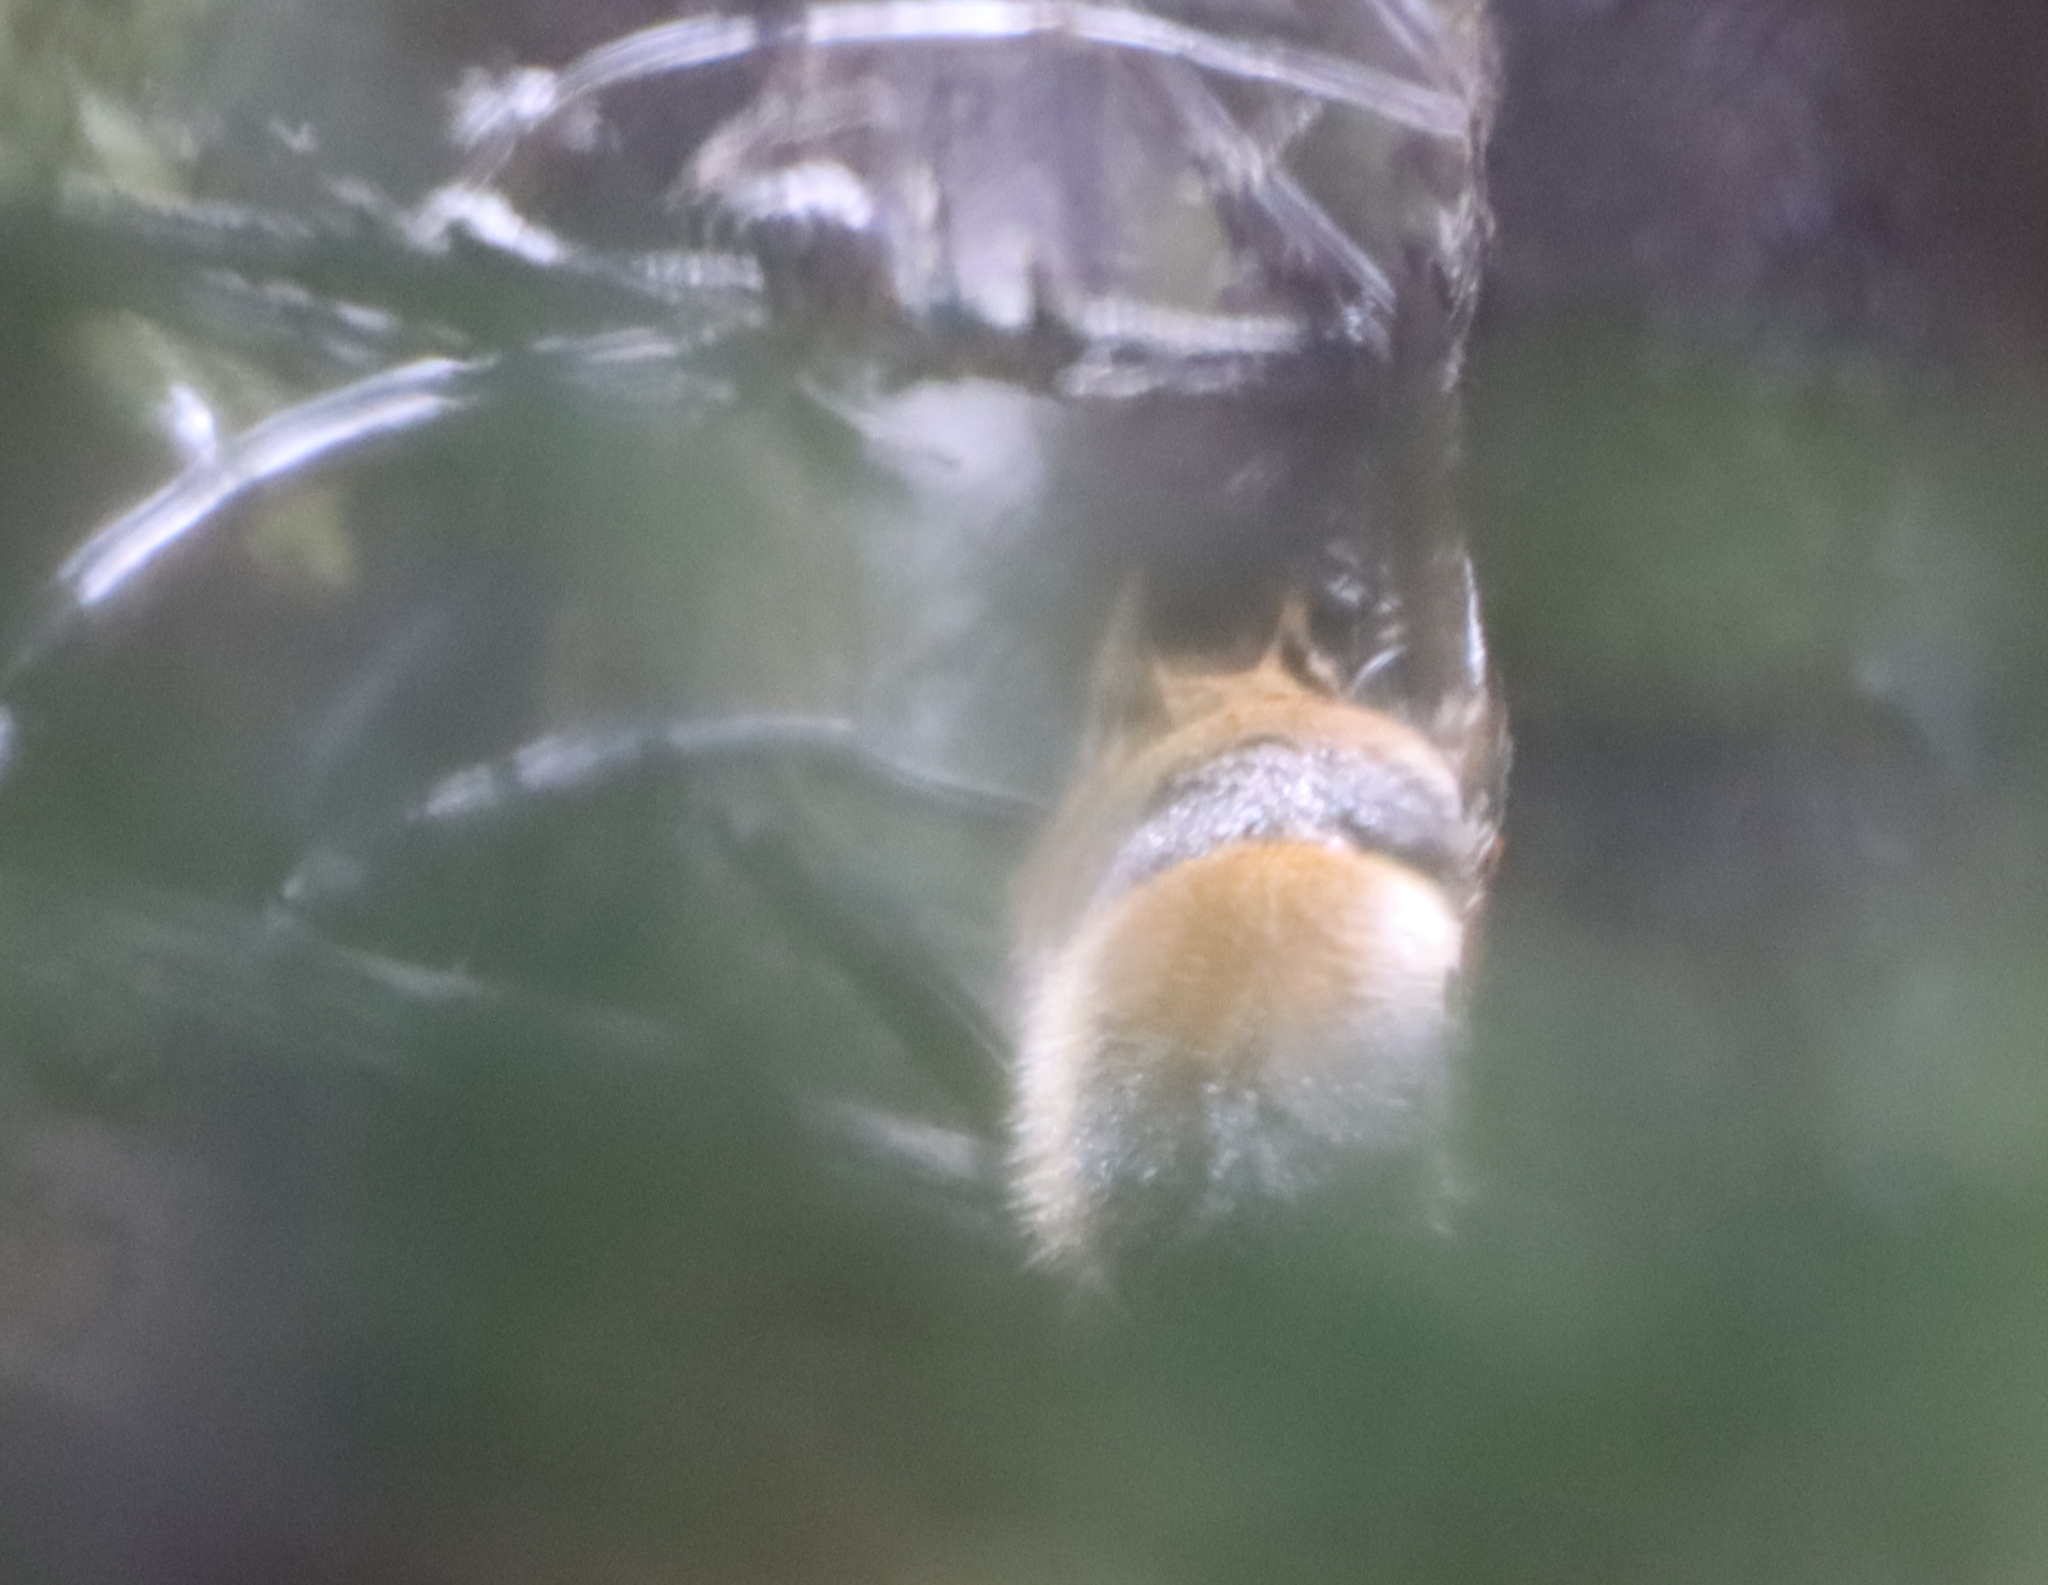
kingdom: Animalia
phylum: Chordata
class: Mammalia
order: Rodentia
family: Sciuridae
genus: Tamiasciurus
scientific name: Tamiasciurus hudsonicus
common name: Red squirrel
